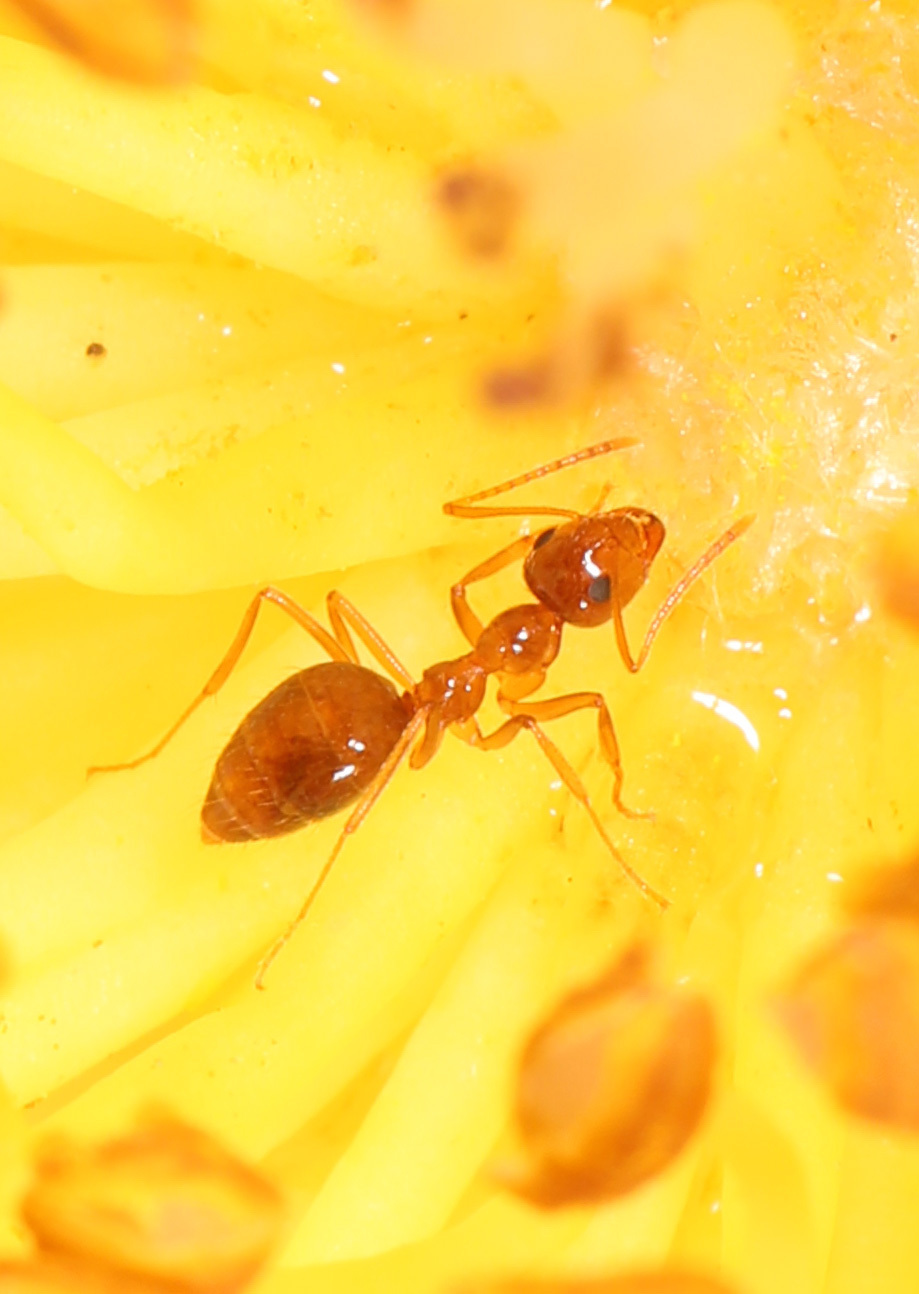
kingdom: Animalia
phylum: Arthropoda
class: Insecta
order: Hymenoptera
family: Formicidae
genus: Prenolepis
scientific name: Prenolepis imparis
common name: Small honey ant
